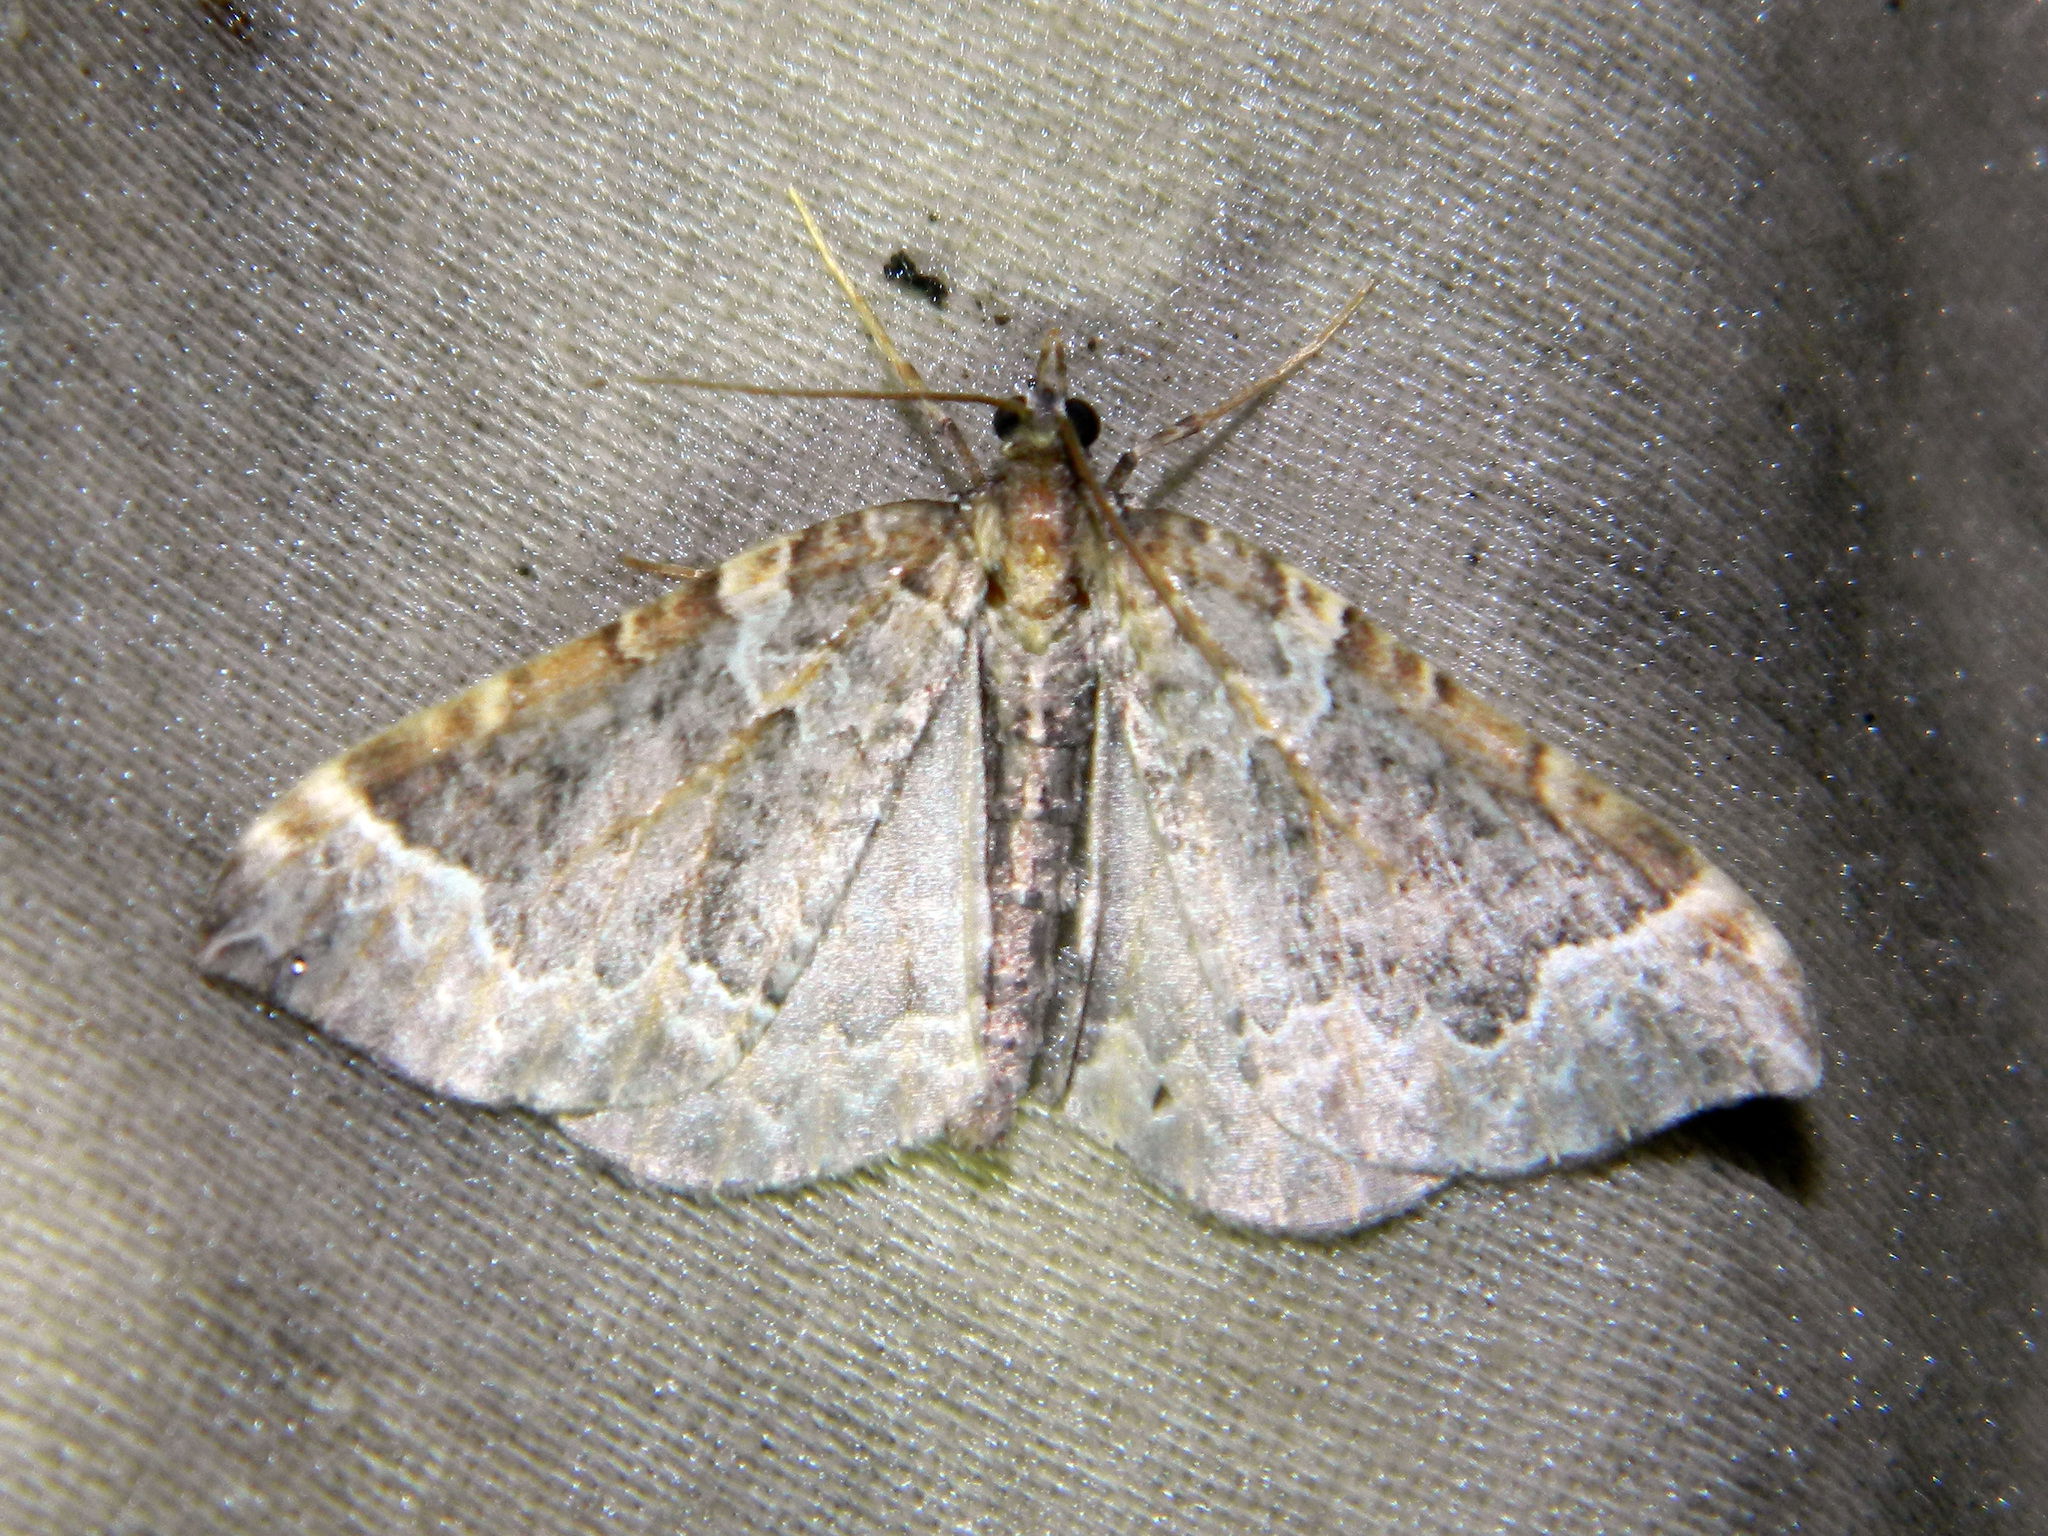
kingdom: Animalia
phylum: Arthropoda
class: Insecta
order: Lepidoptera
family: Geometridae
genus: Eulithis
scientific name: Eulithis flavibrunneata
